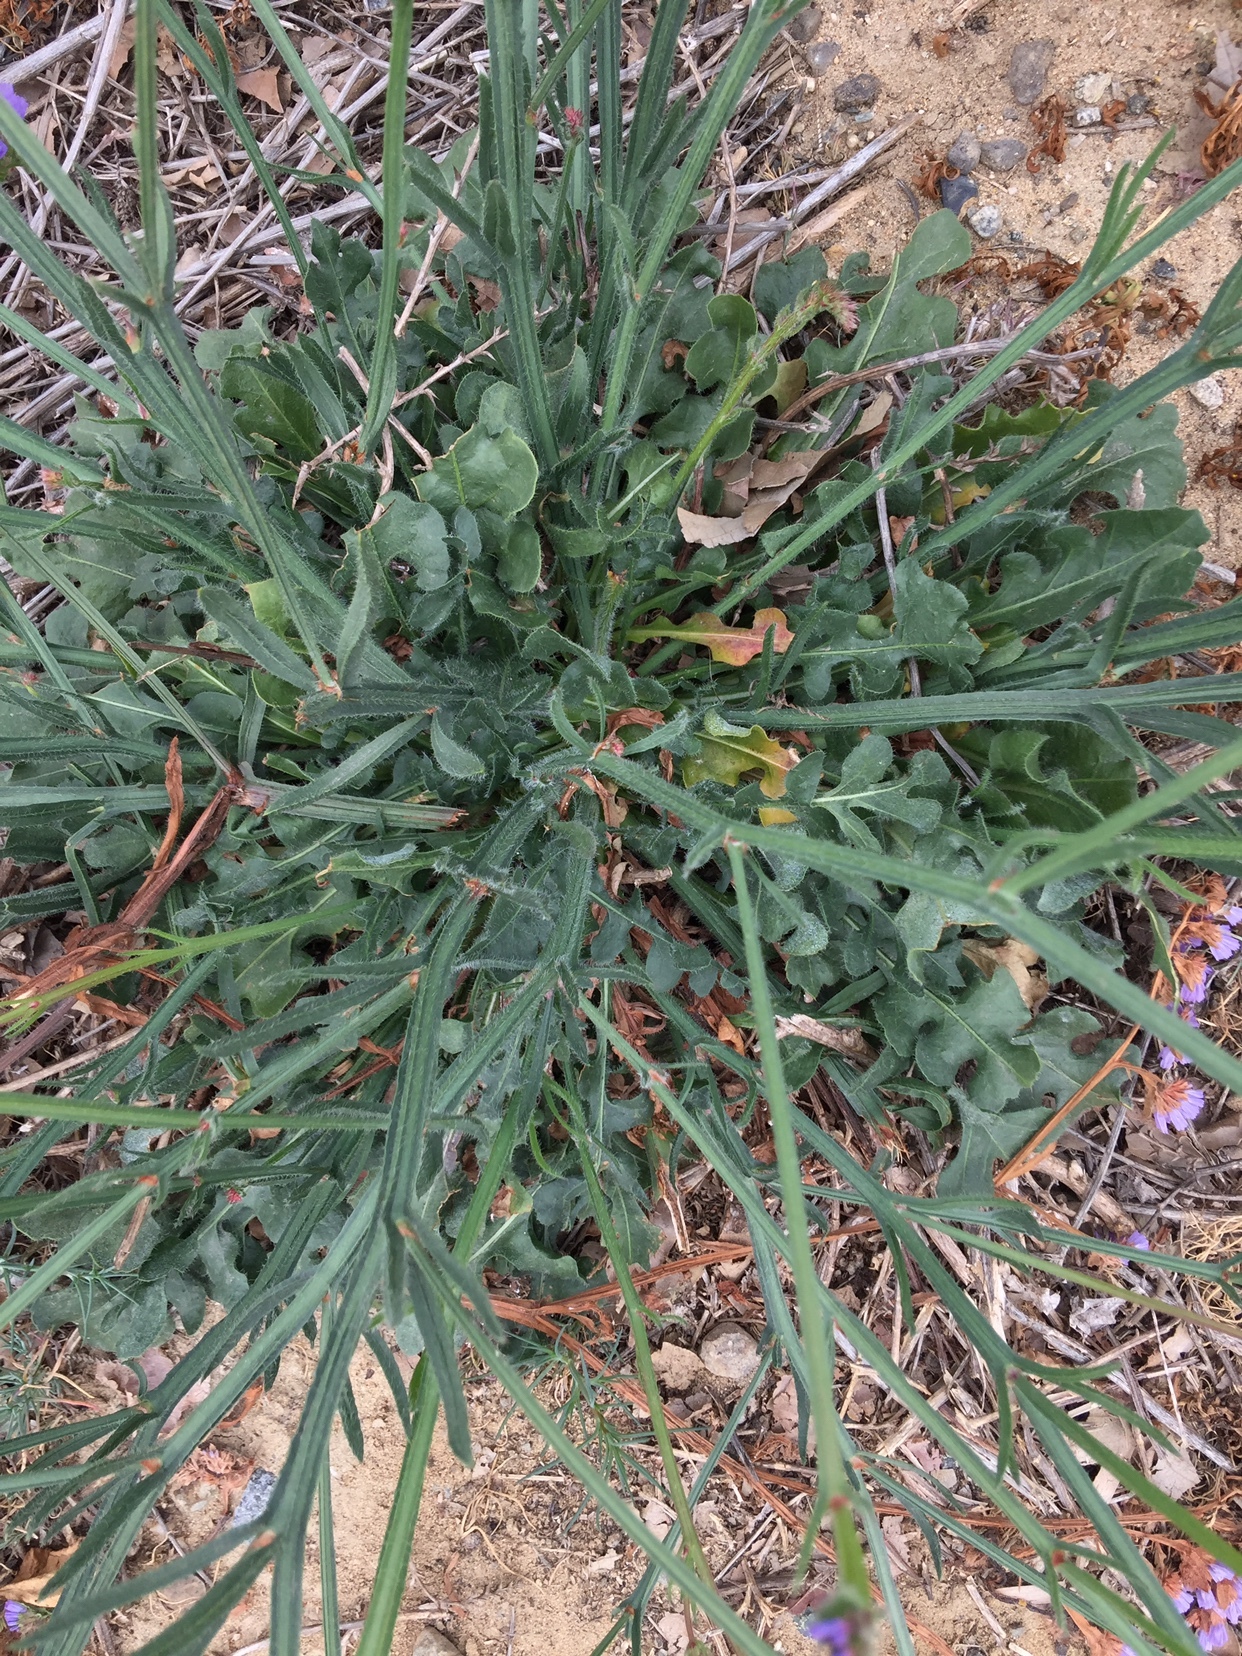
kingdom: Plantae
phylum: Tracheophyta
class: Magnoliopsida
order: Caryophyllales
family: Plumbaginaceae
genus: Limonium
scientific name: Limonium sinuatum
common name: Statice
